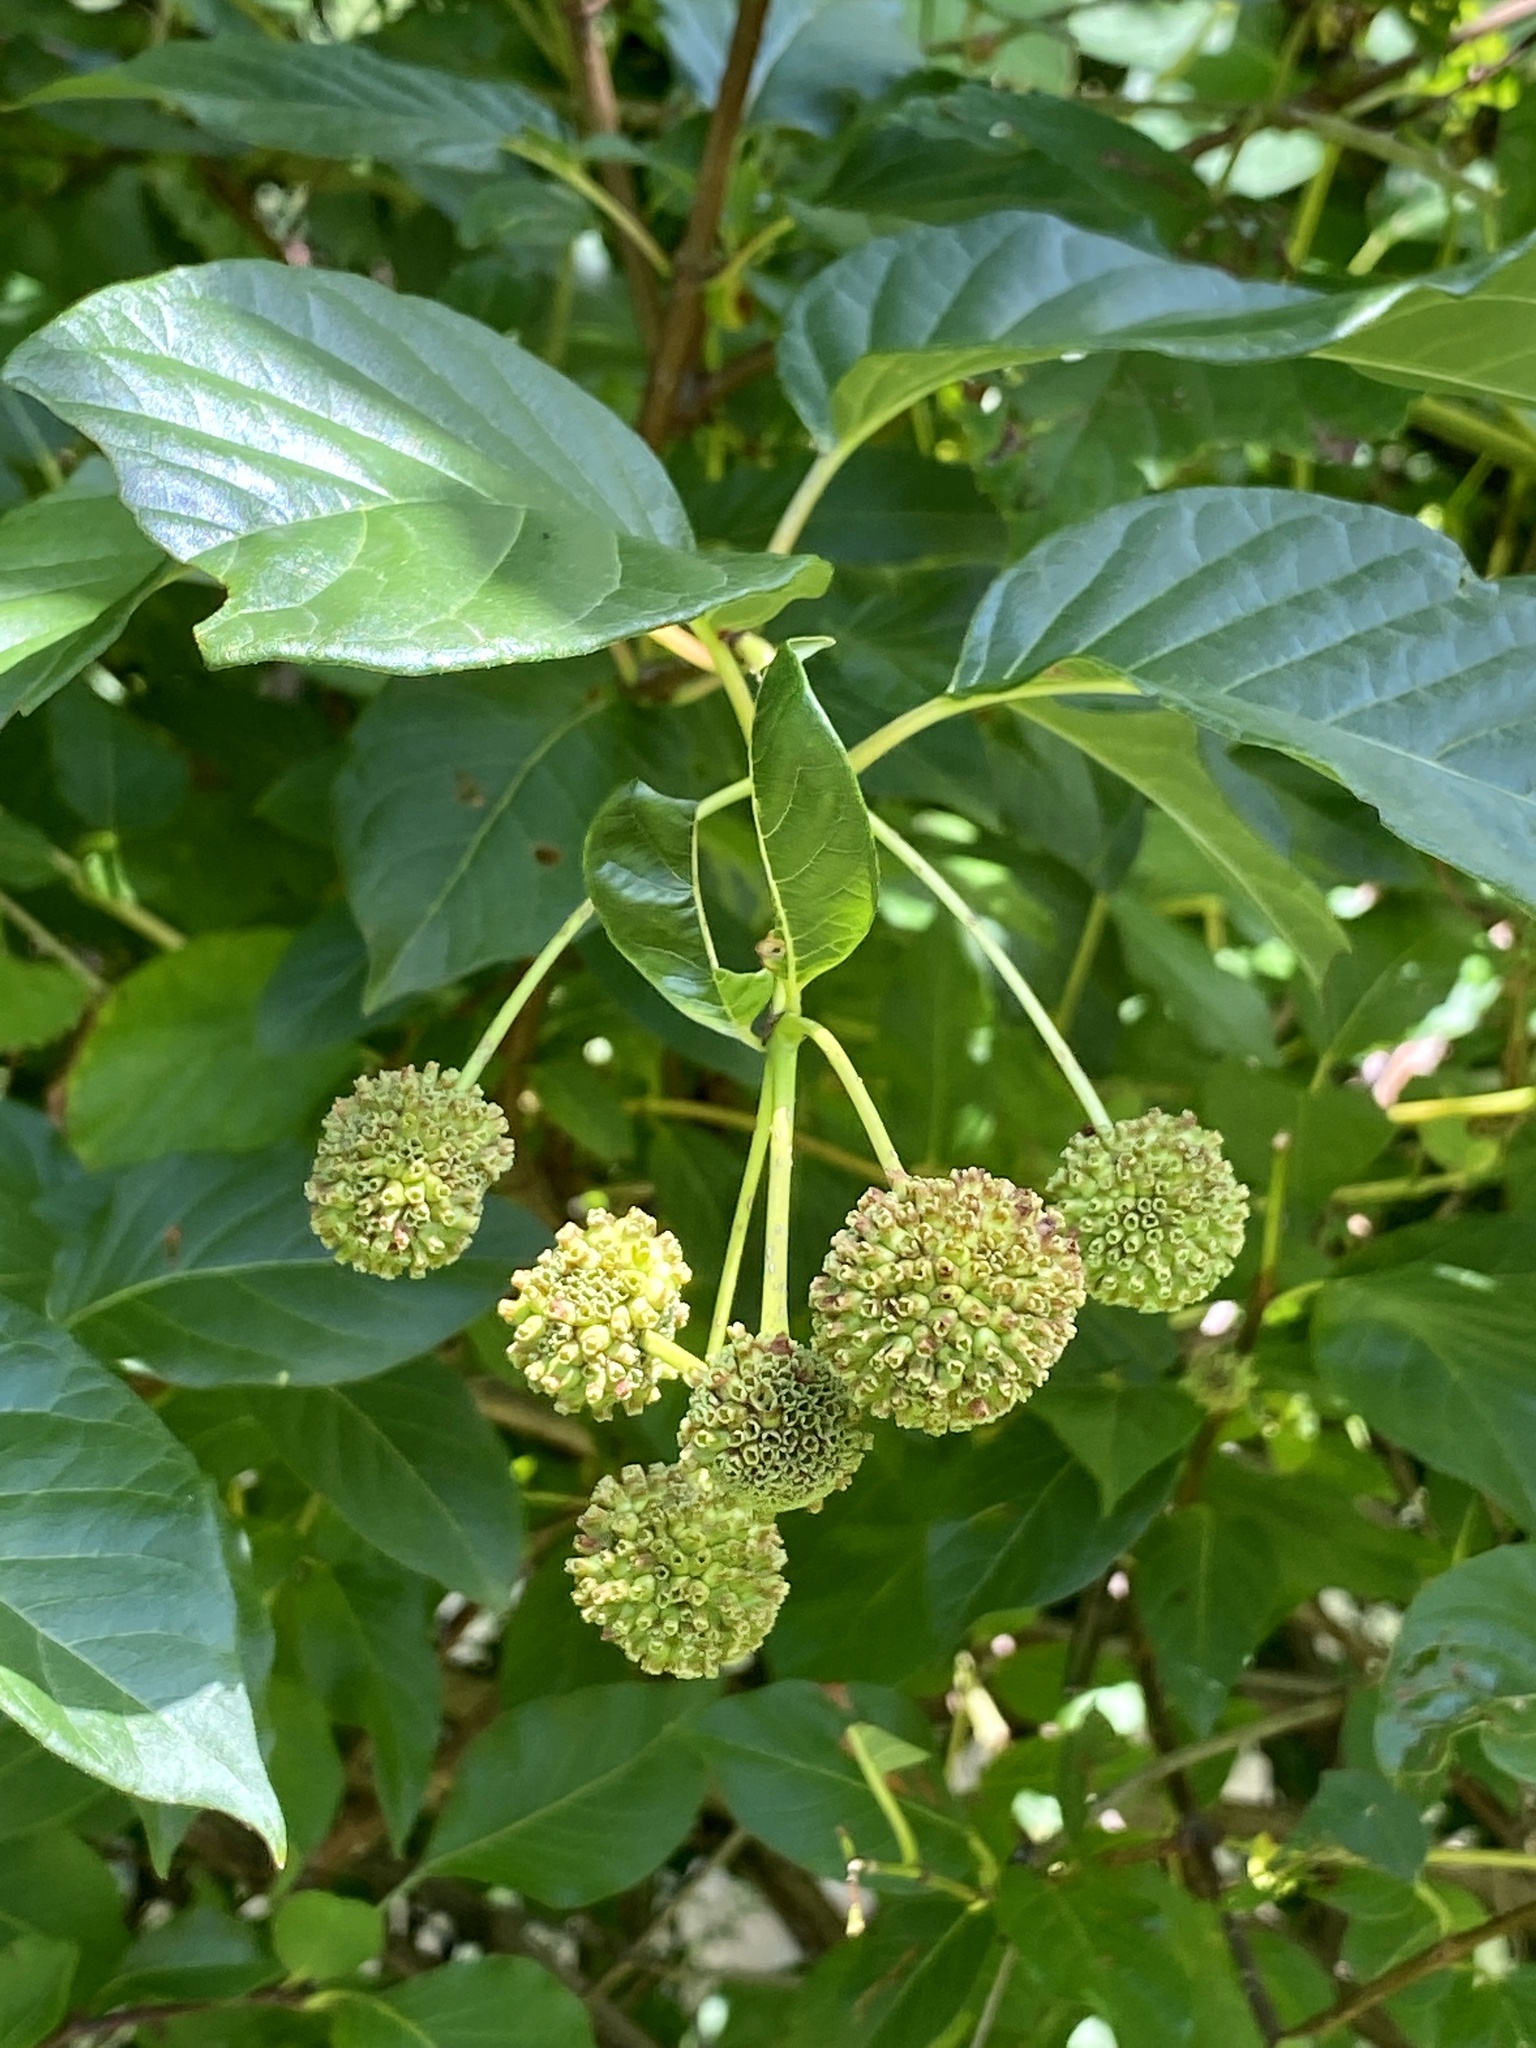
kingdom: Plantae
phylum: Tracheophyta
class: Magnoliopsida
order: Gentianales
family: Rubiaceae
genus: Cephalanthus
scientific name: Cephalanthus occidentalis
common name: Button-willow
